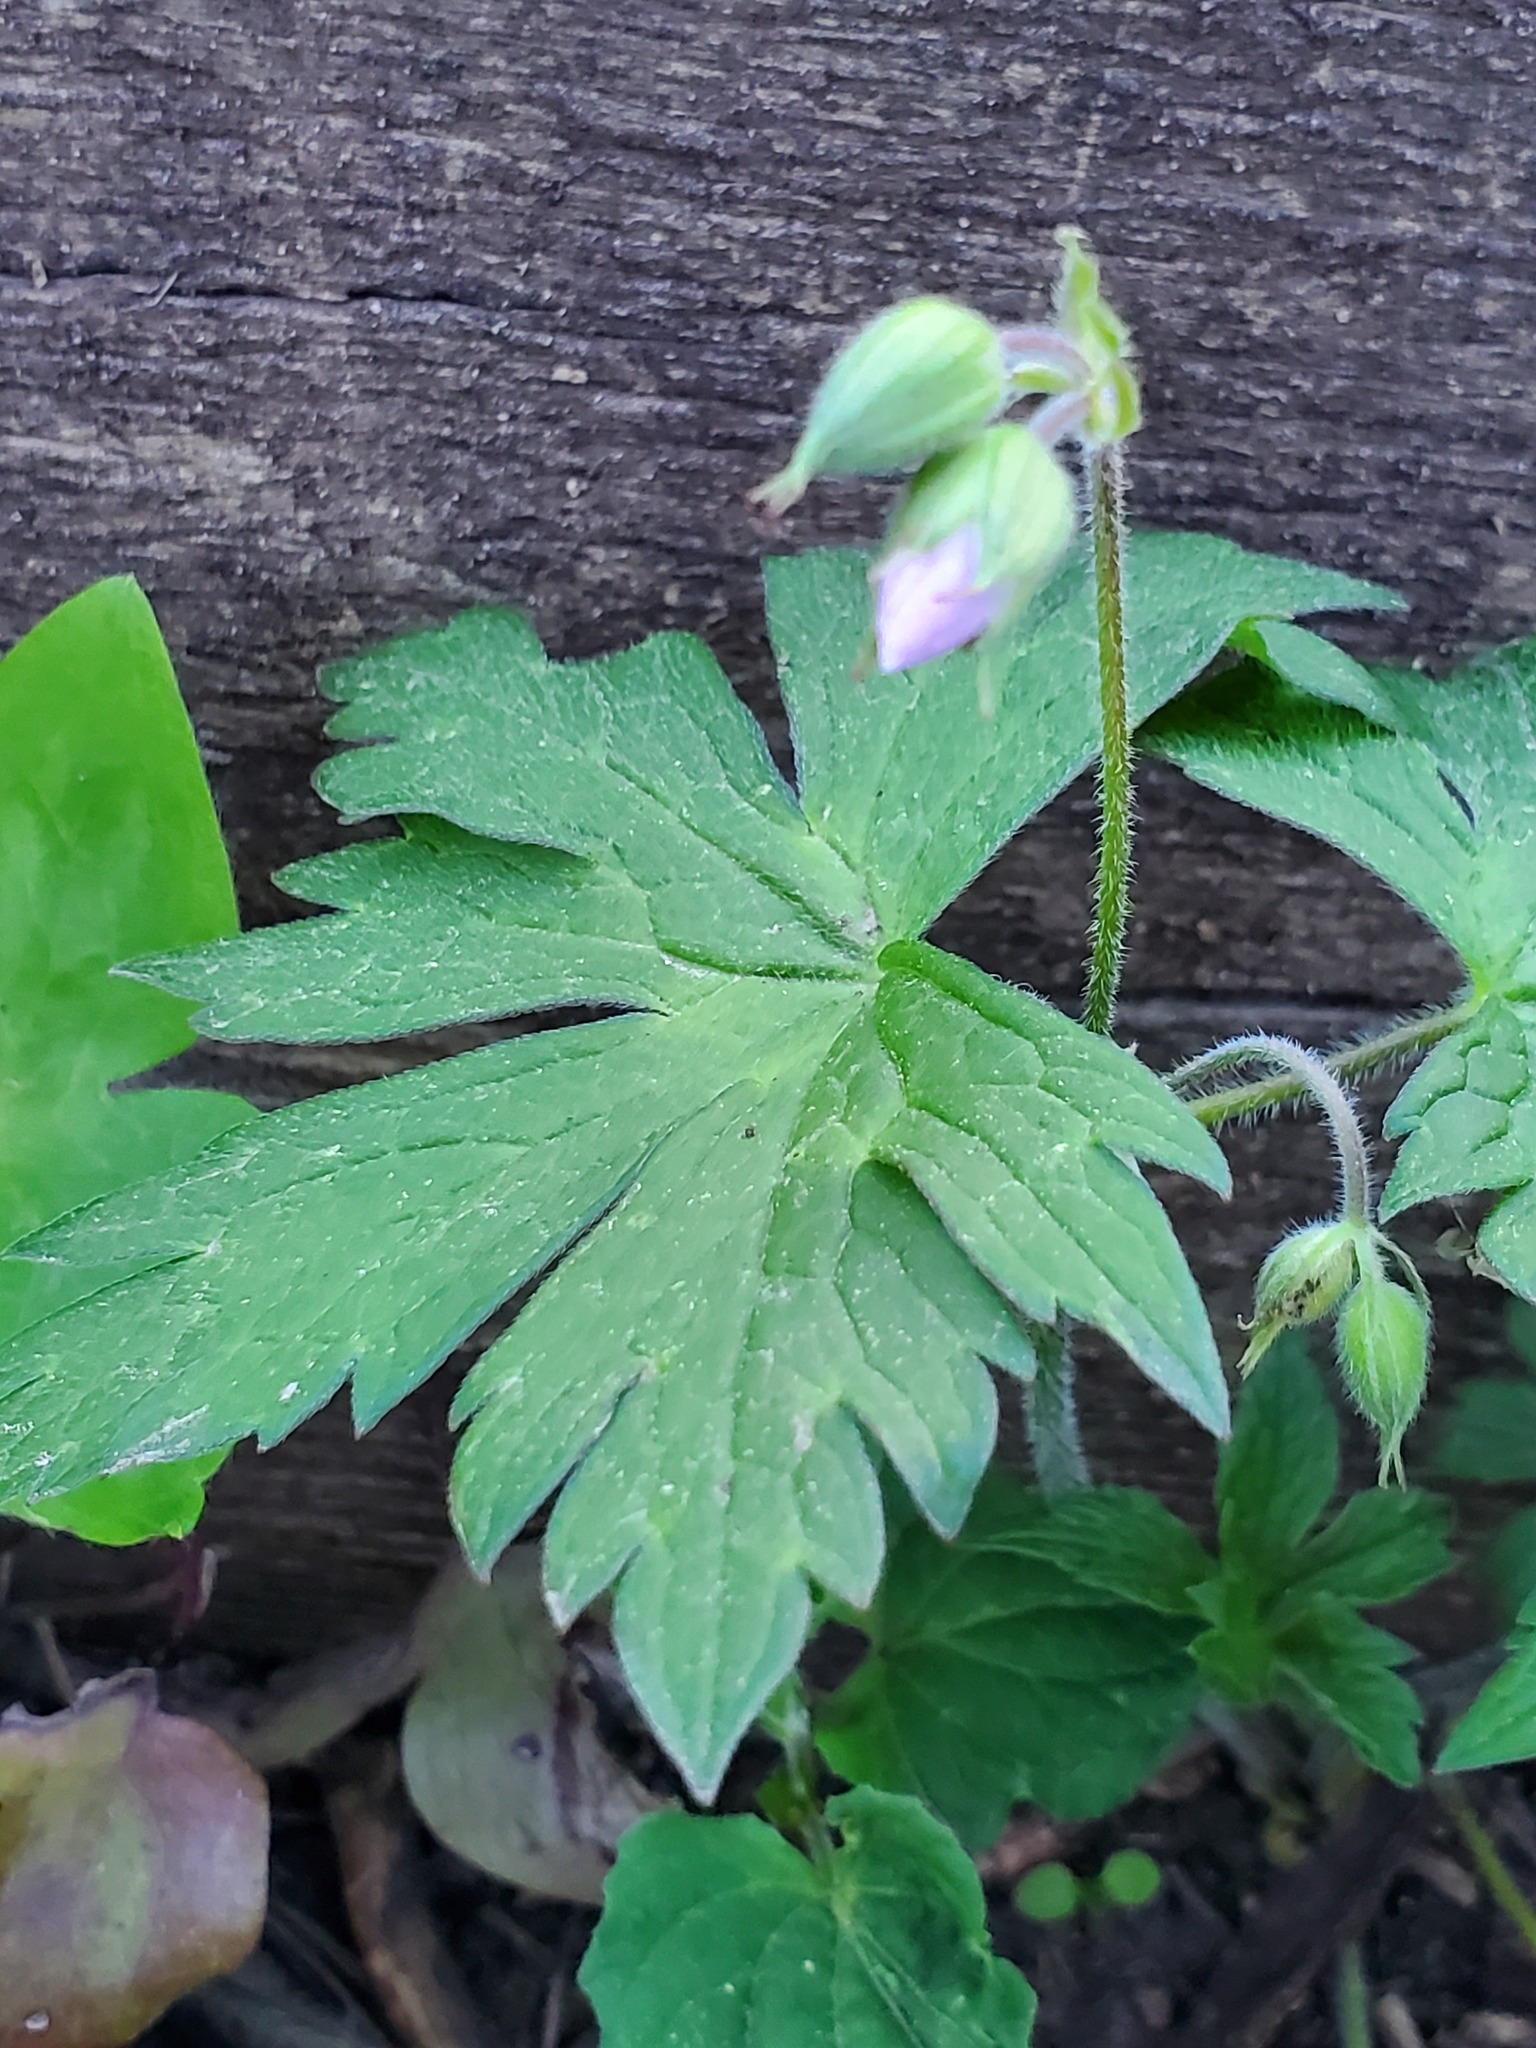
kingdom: Plantae
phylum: Tracheophyta
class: Magnoliopsida
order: Geraniales
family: Geraniaceae
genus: Geranium
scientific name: Geranium maculatum
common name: Spotted geranium
